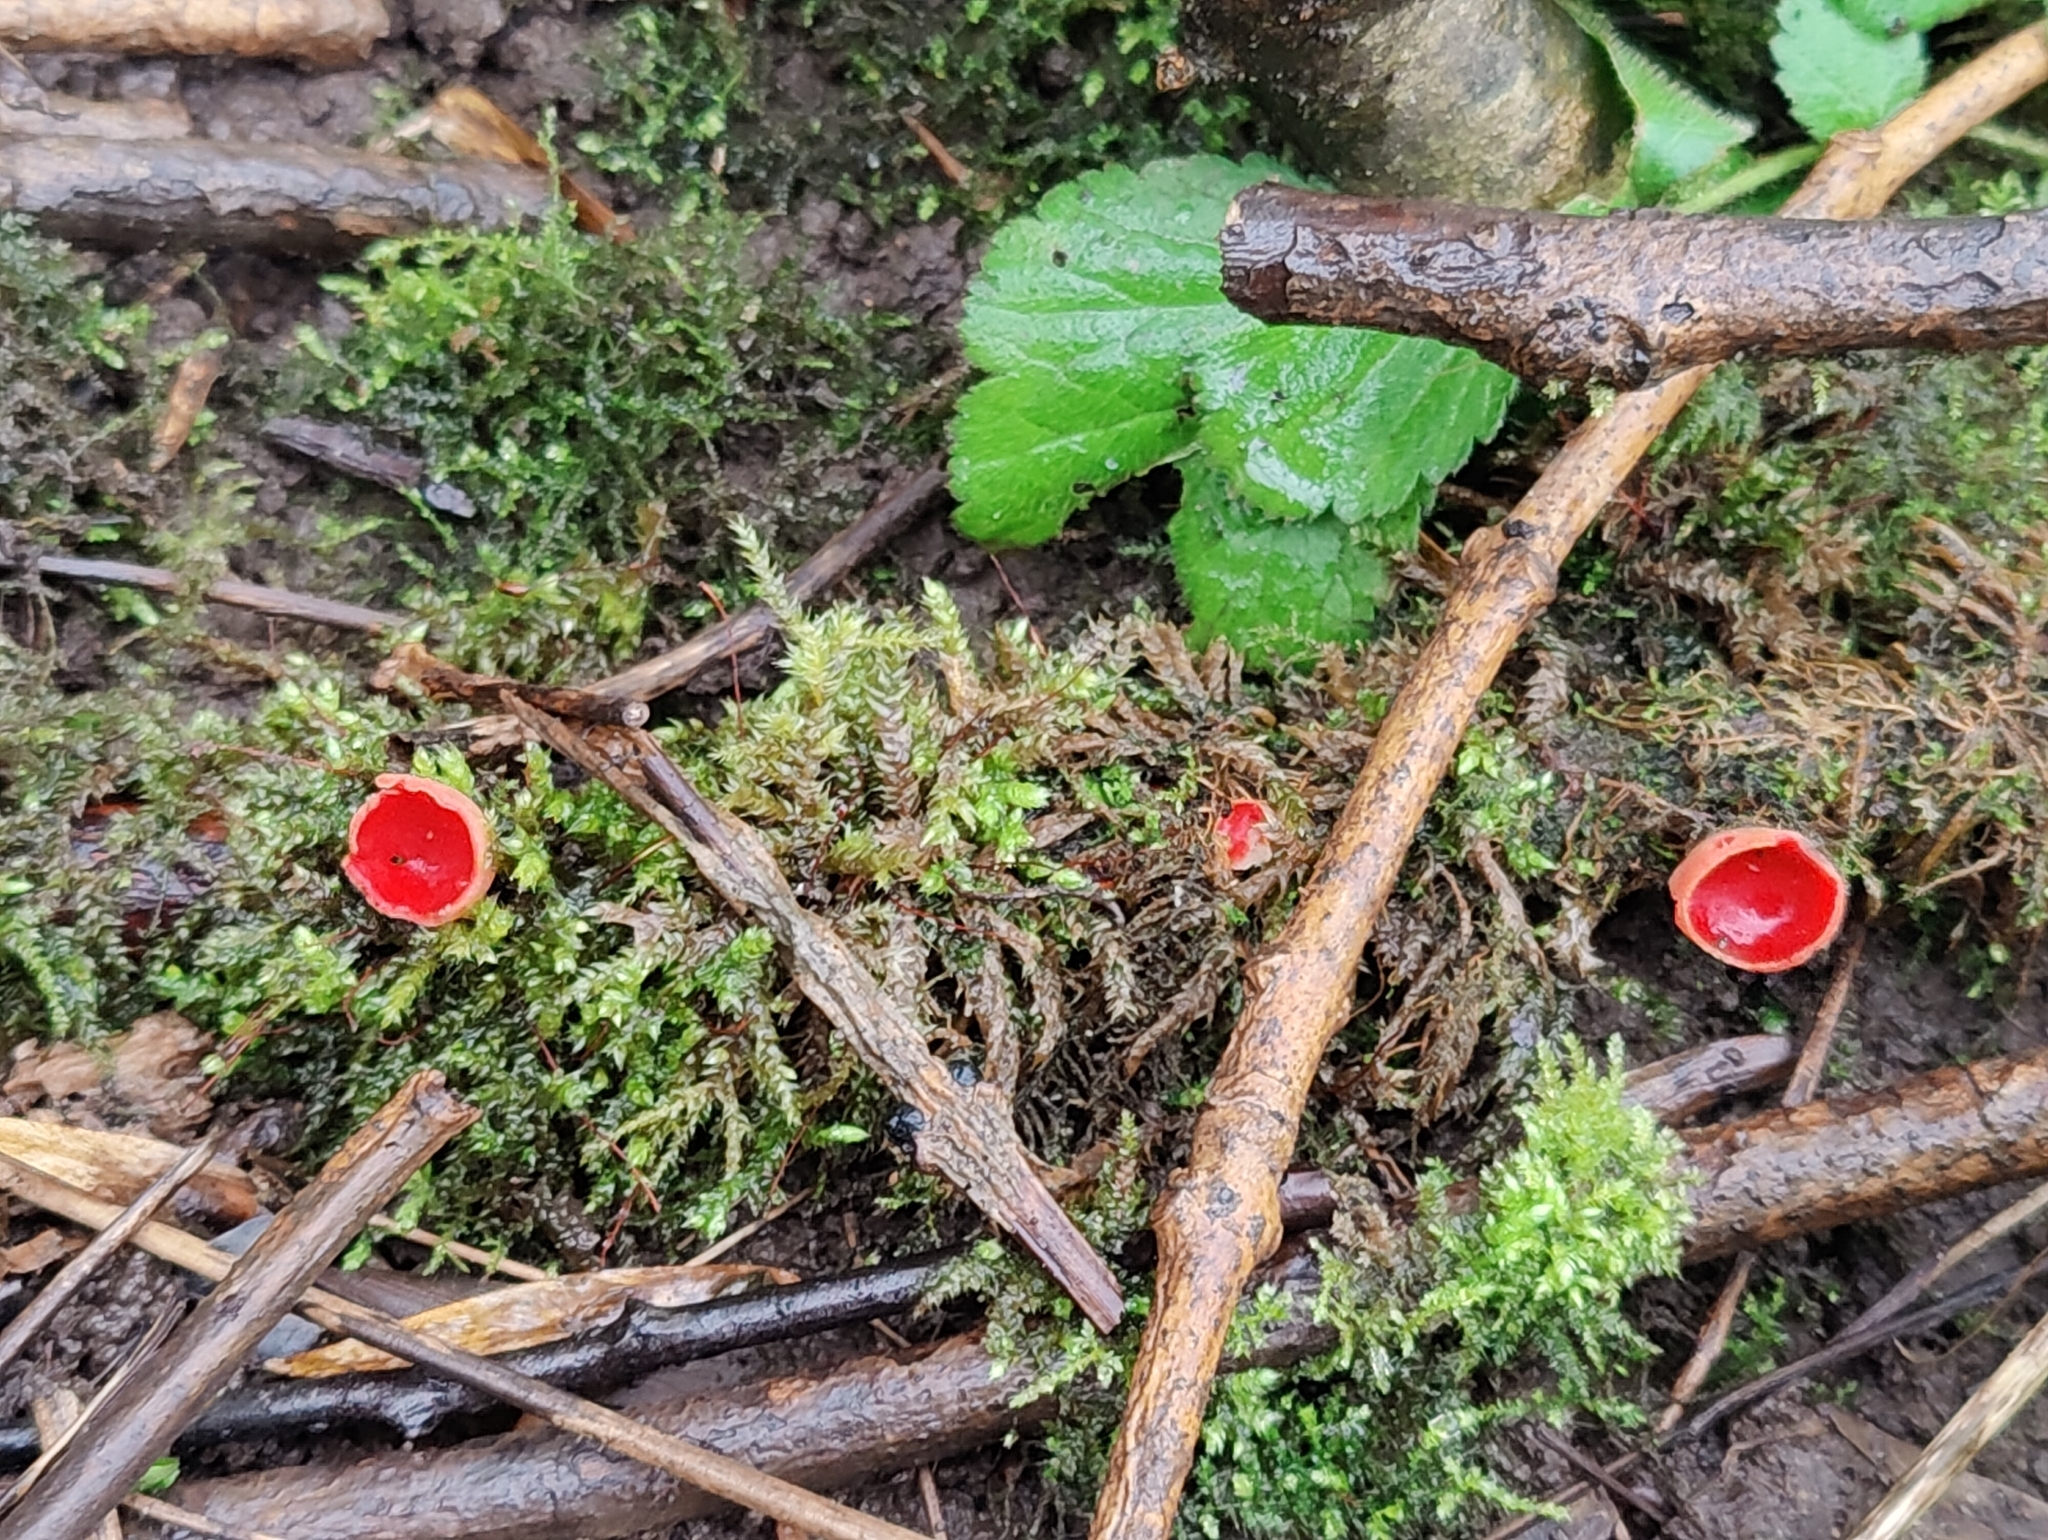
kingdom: Fungi
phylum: Ascomycota
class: Pezizomycetes
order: Pezizales
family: Sarcoscyphaceae
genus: Sarcoscypha
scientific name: Sarcoscypha
